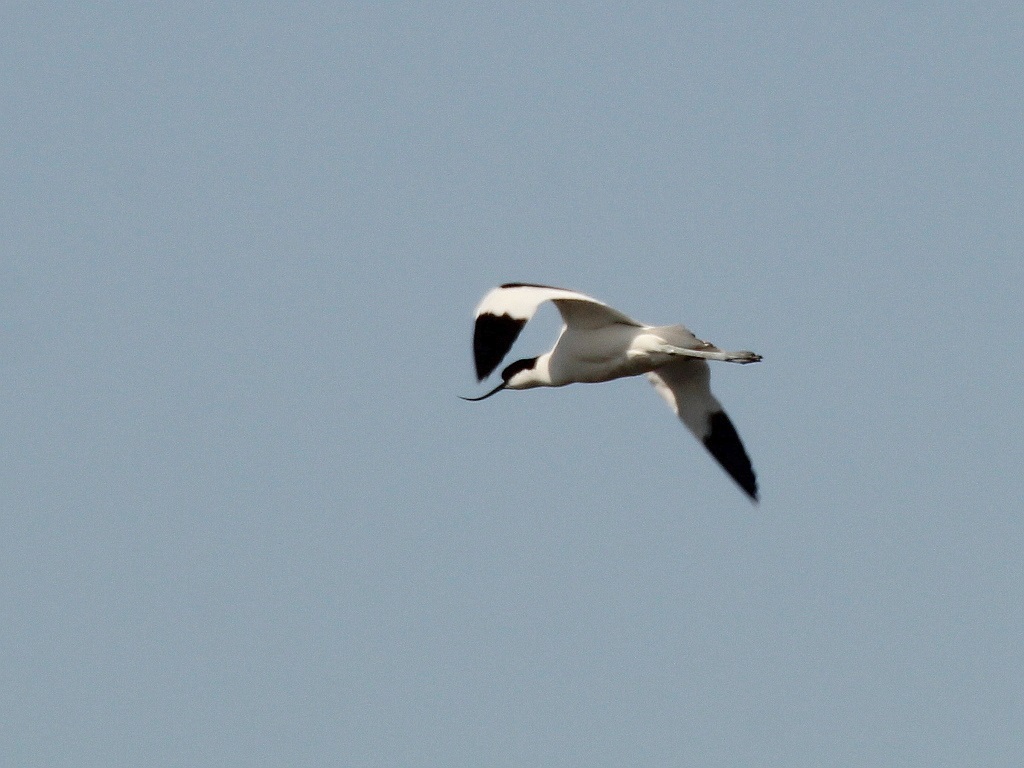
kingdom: Animalia
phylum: Chordata
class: Aves
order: Charadriiformes
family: Recurvirostridae
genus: Recurvirostra
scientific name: Recurvirostra avosetta
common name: Pied avocet
